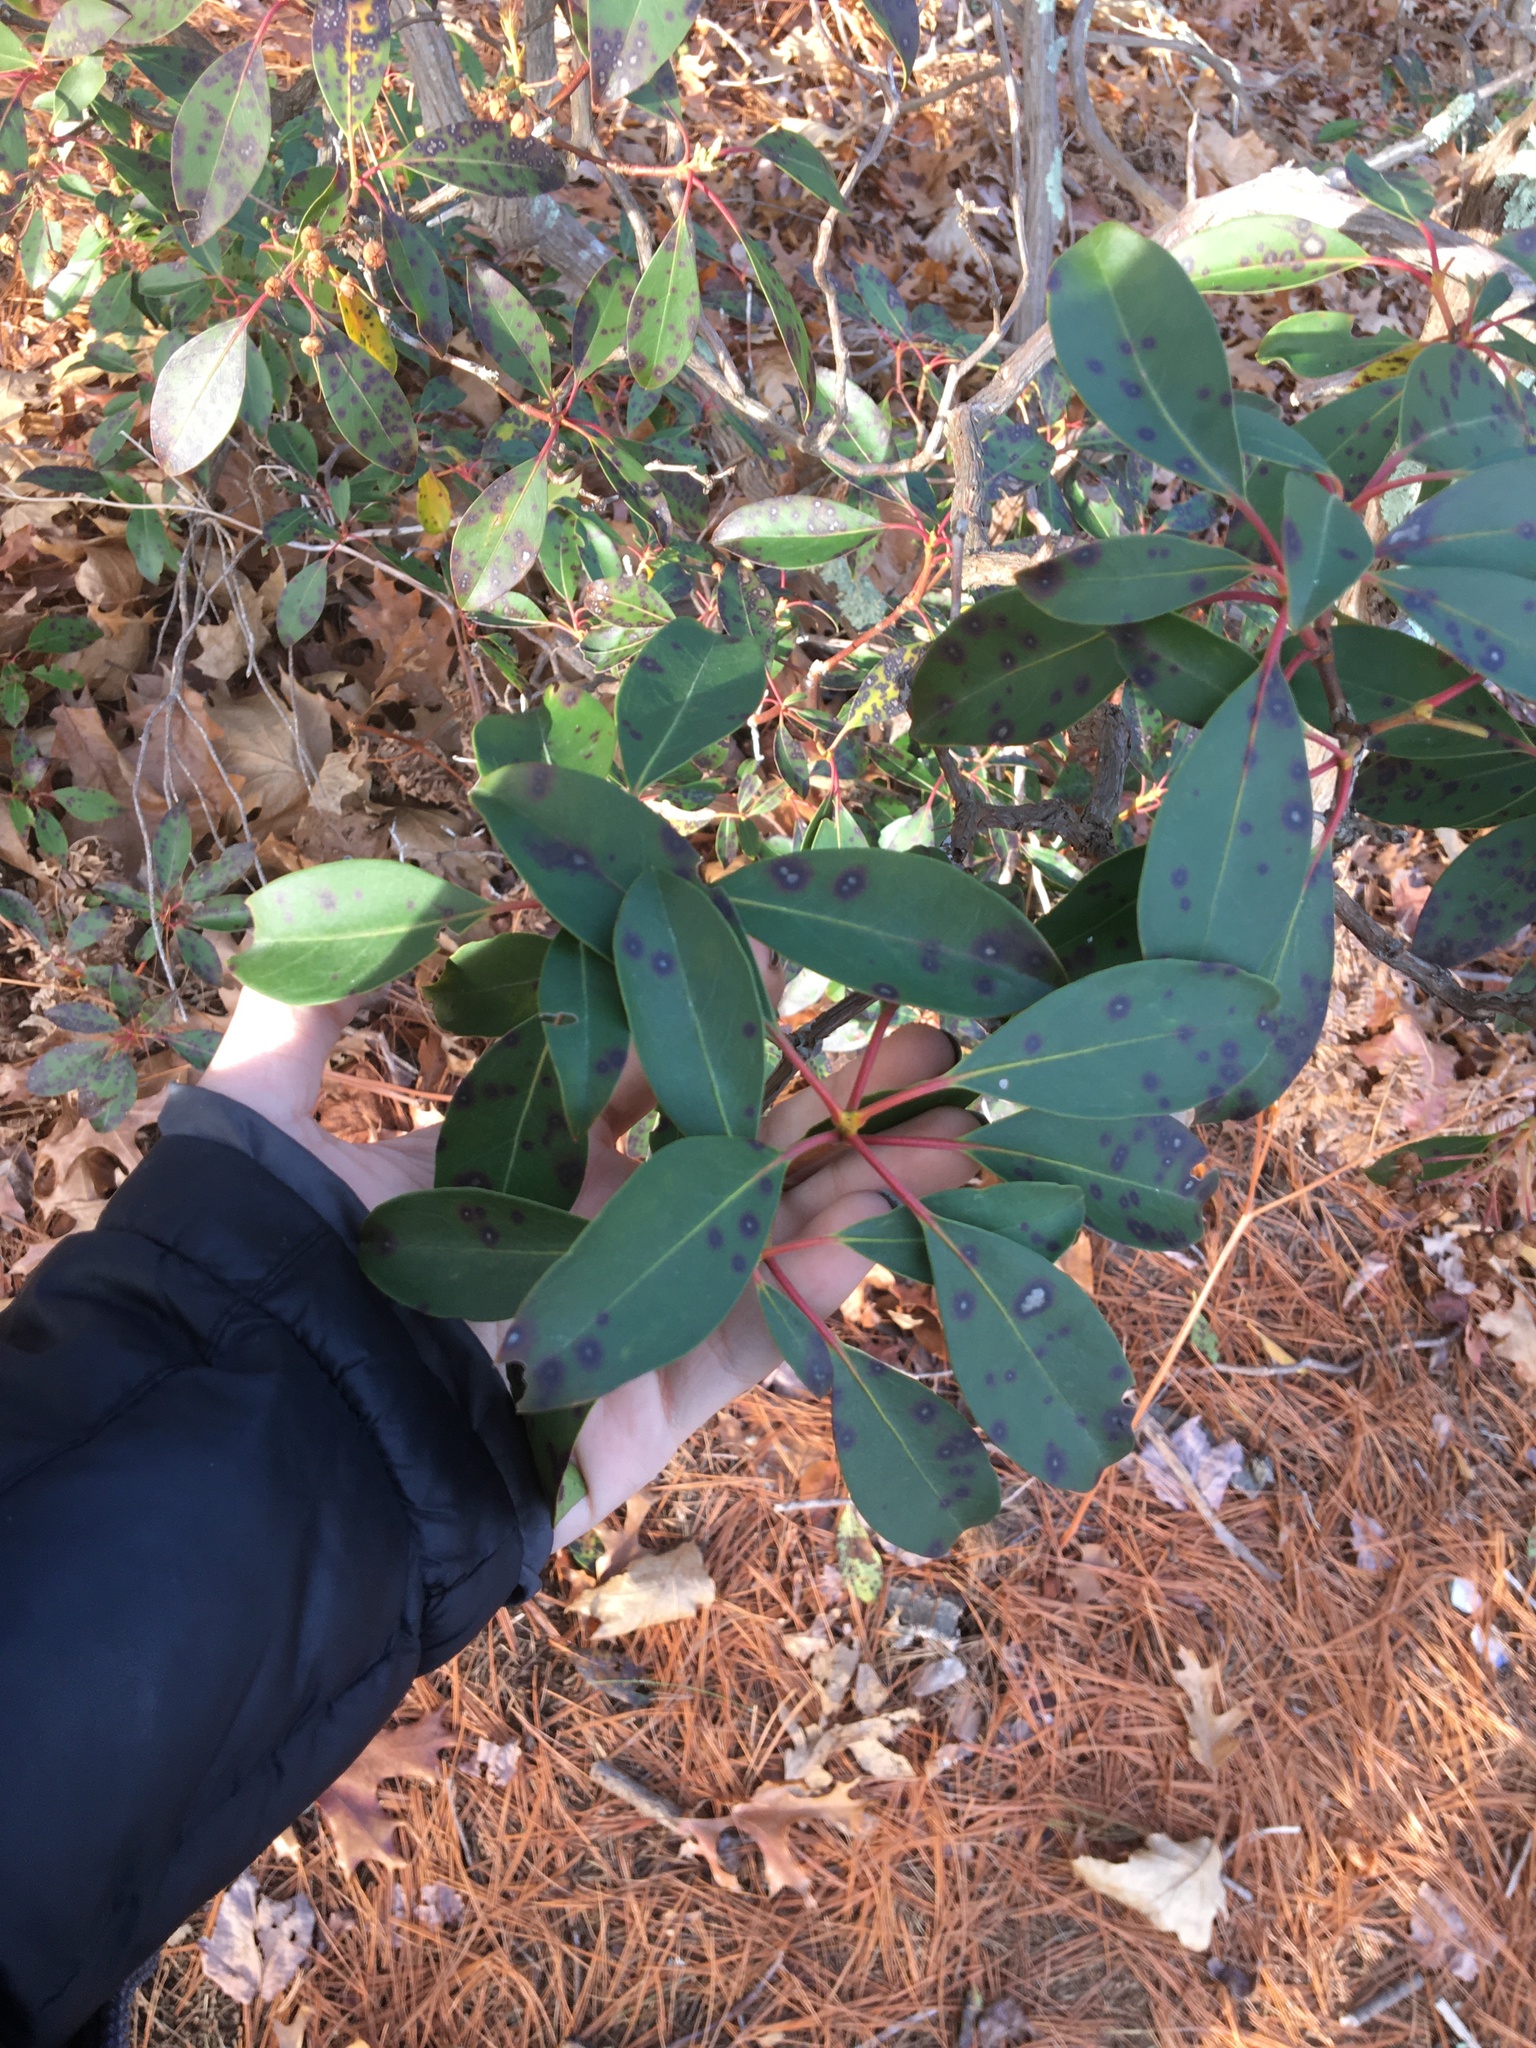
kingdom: Fungi
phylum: Ascomycota
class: Dothideomycetes
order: Mycosphaerellales
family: Mycosphaerellaceae
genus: Mycosphaerella
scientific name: Mycosphaerella colorata
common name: Mountain laurel leaf spot
